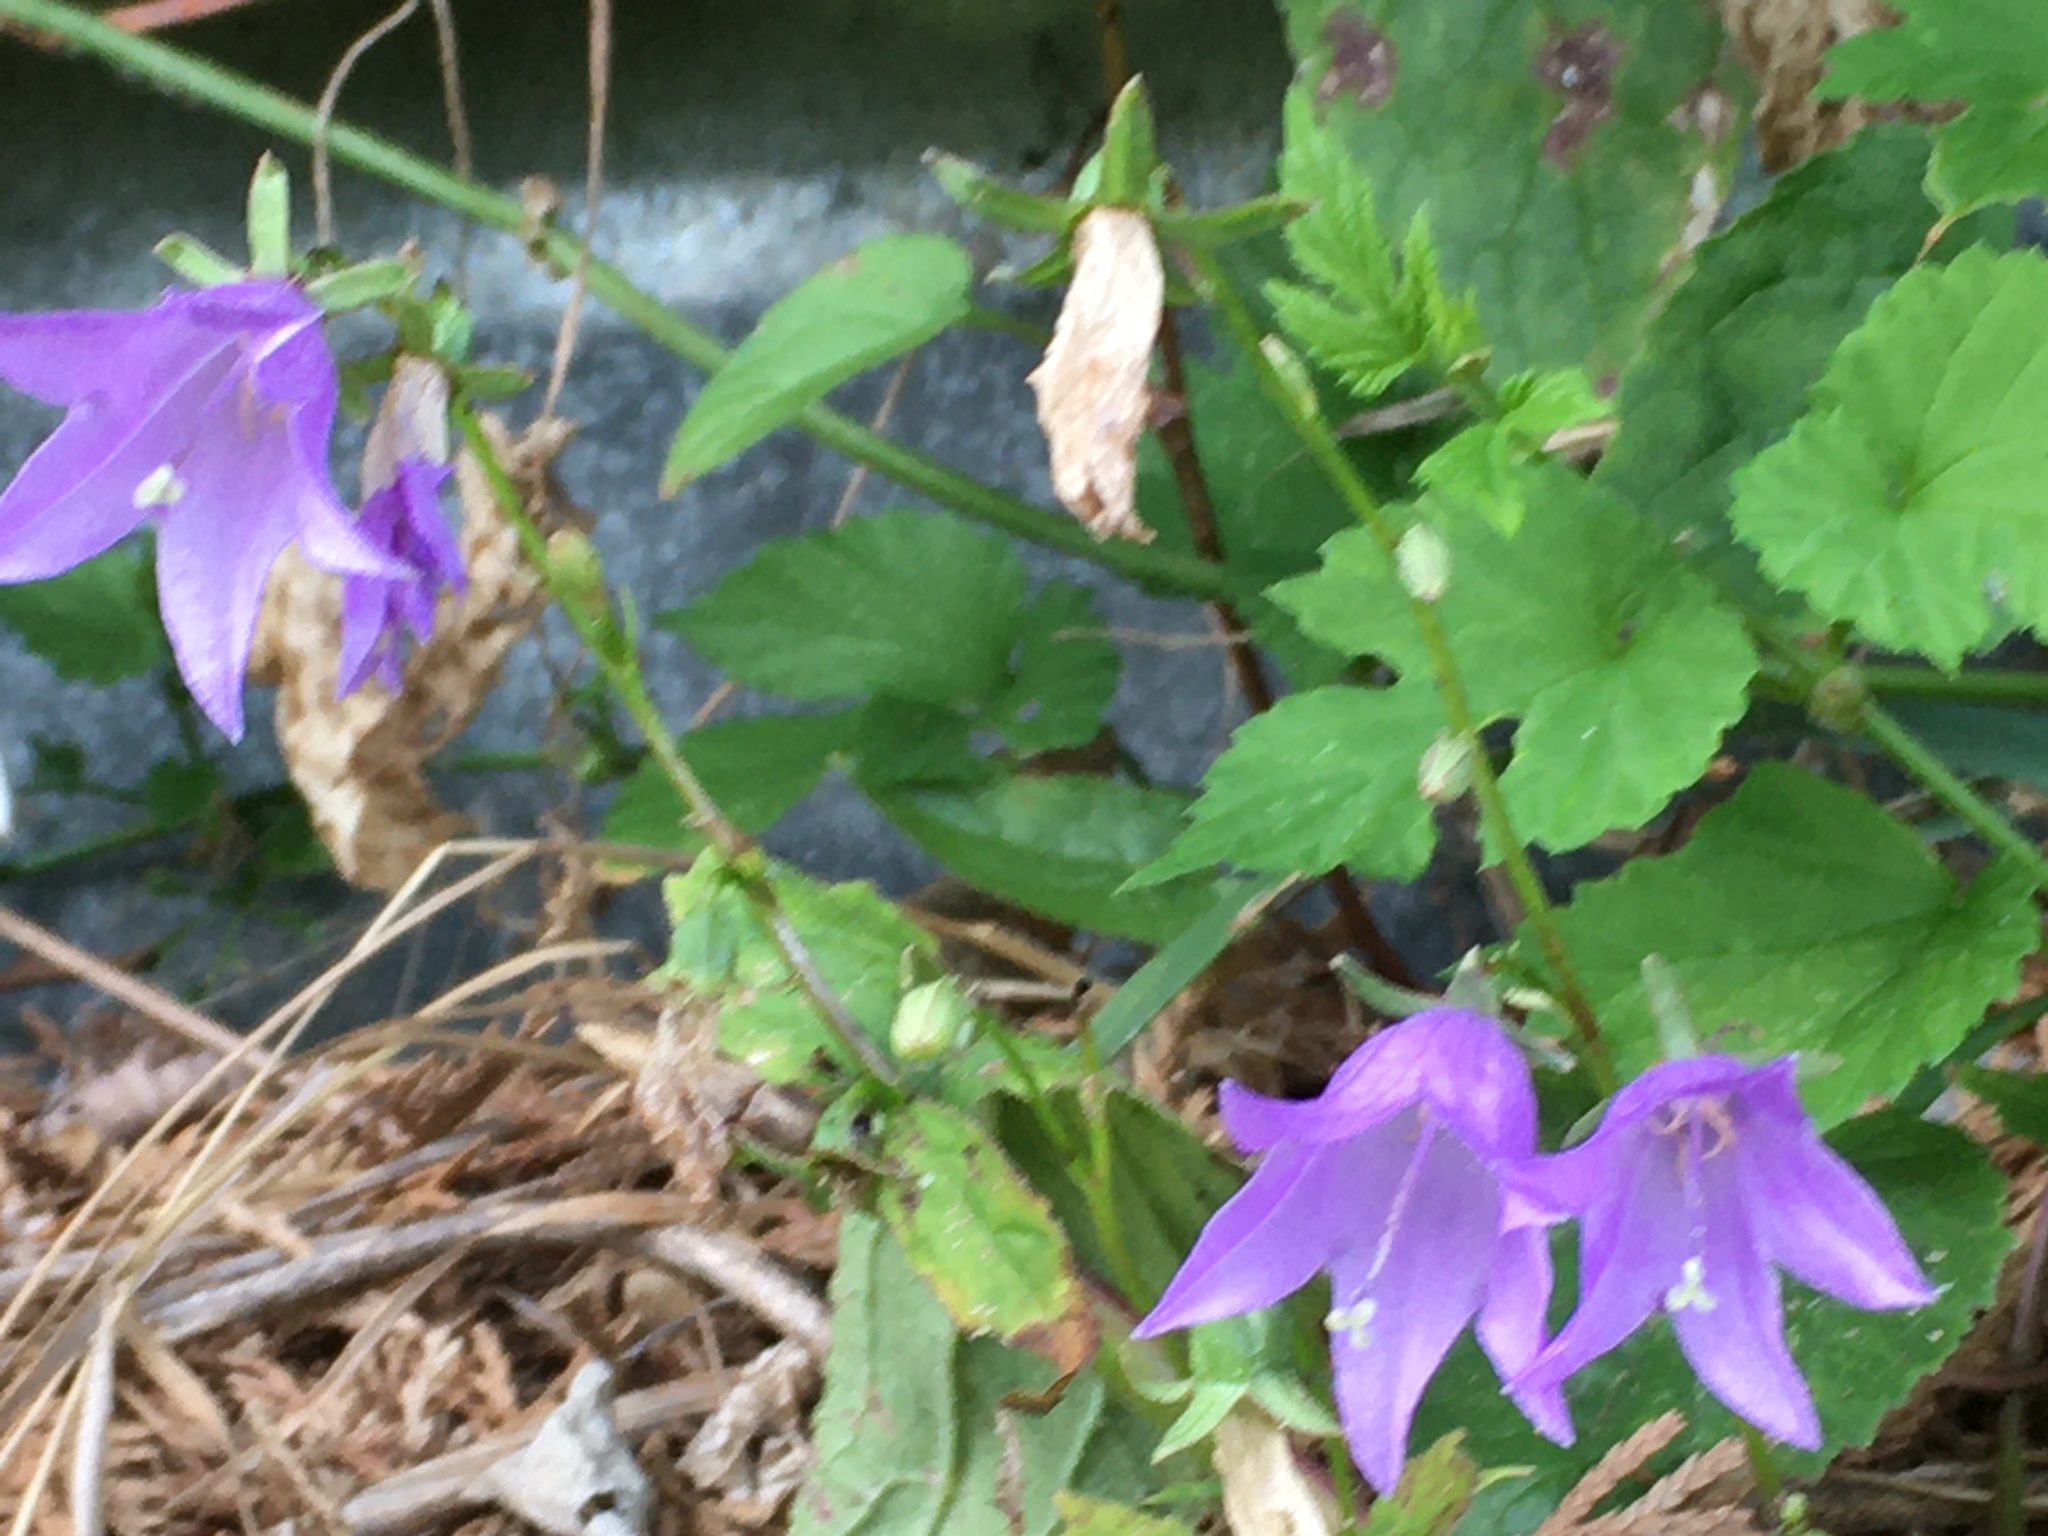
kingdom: Plantae
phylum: Tracheophyta
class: Magnoliopsida
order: Asterales
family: Campanulaceae
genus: Campanula
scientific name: Campanula rapunculoides
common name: Creeping bellflower
